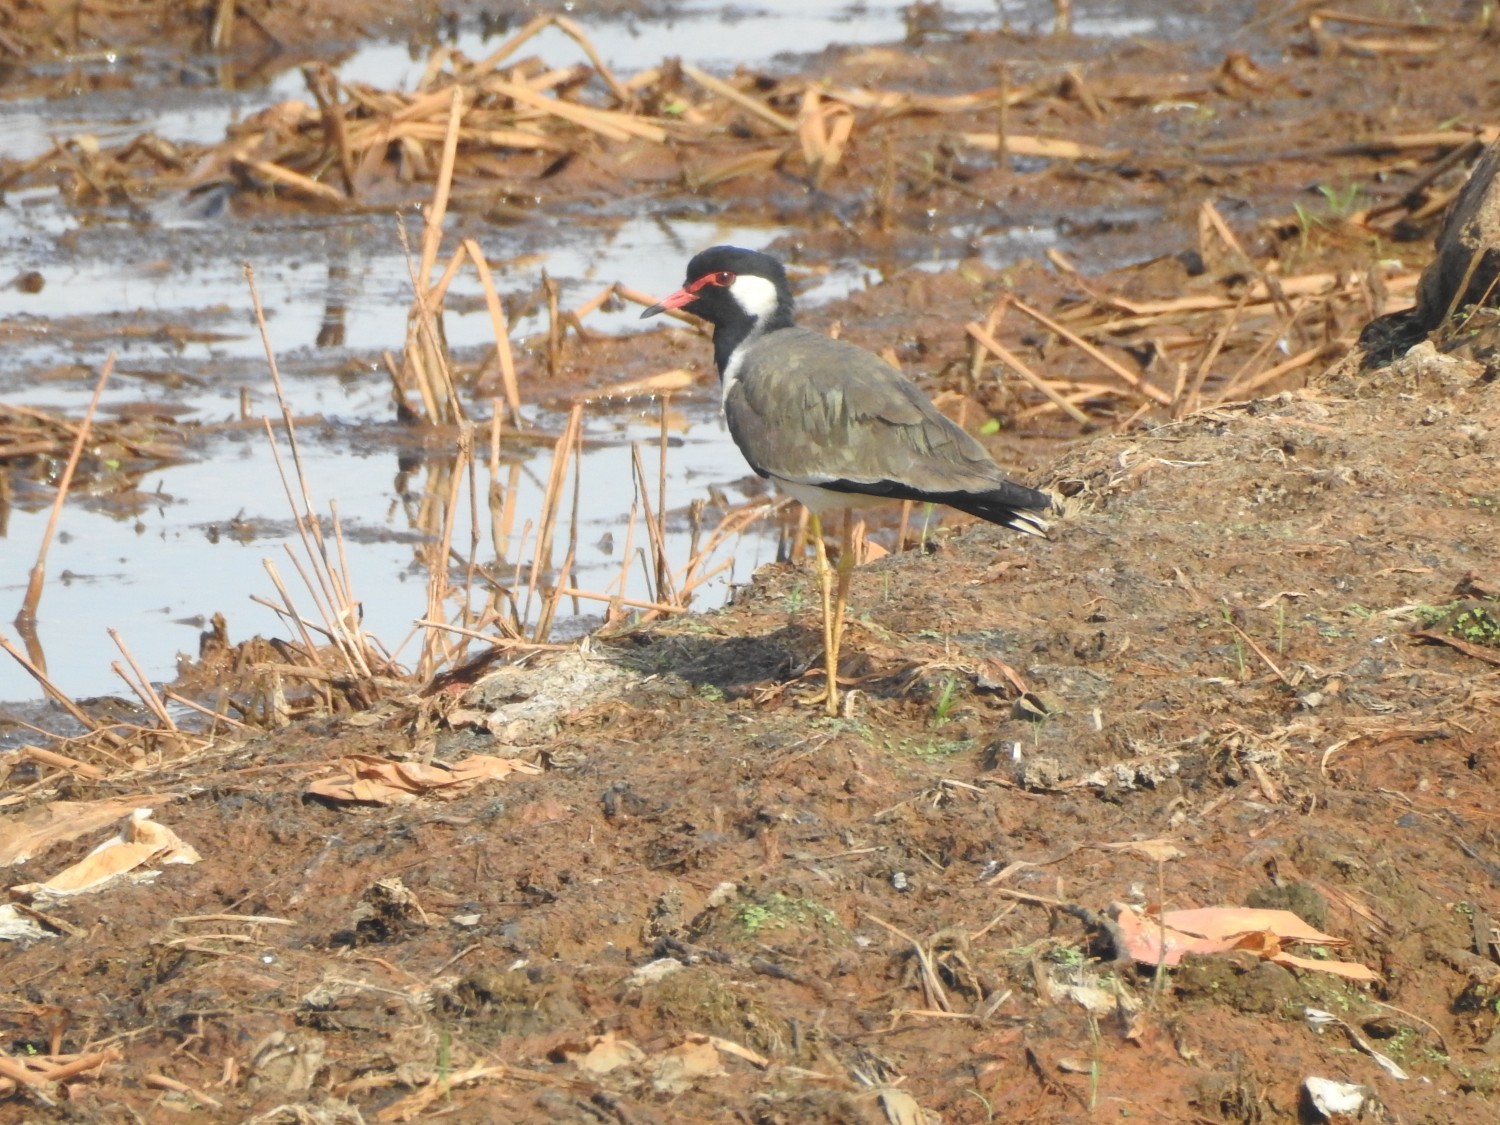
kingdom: Animalia
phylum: Chordata
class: Aves
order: Charadriiformes
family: Charadriidae
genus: Vanellus
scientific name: Vanellus indicus
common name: Red-wattled lapwing
